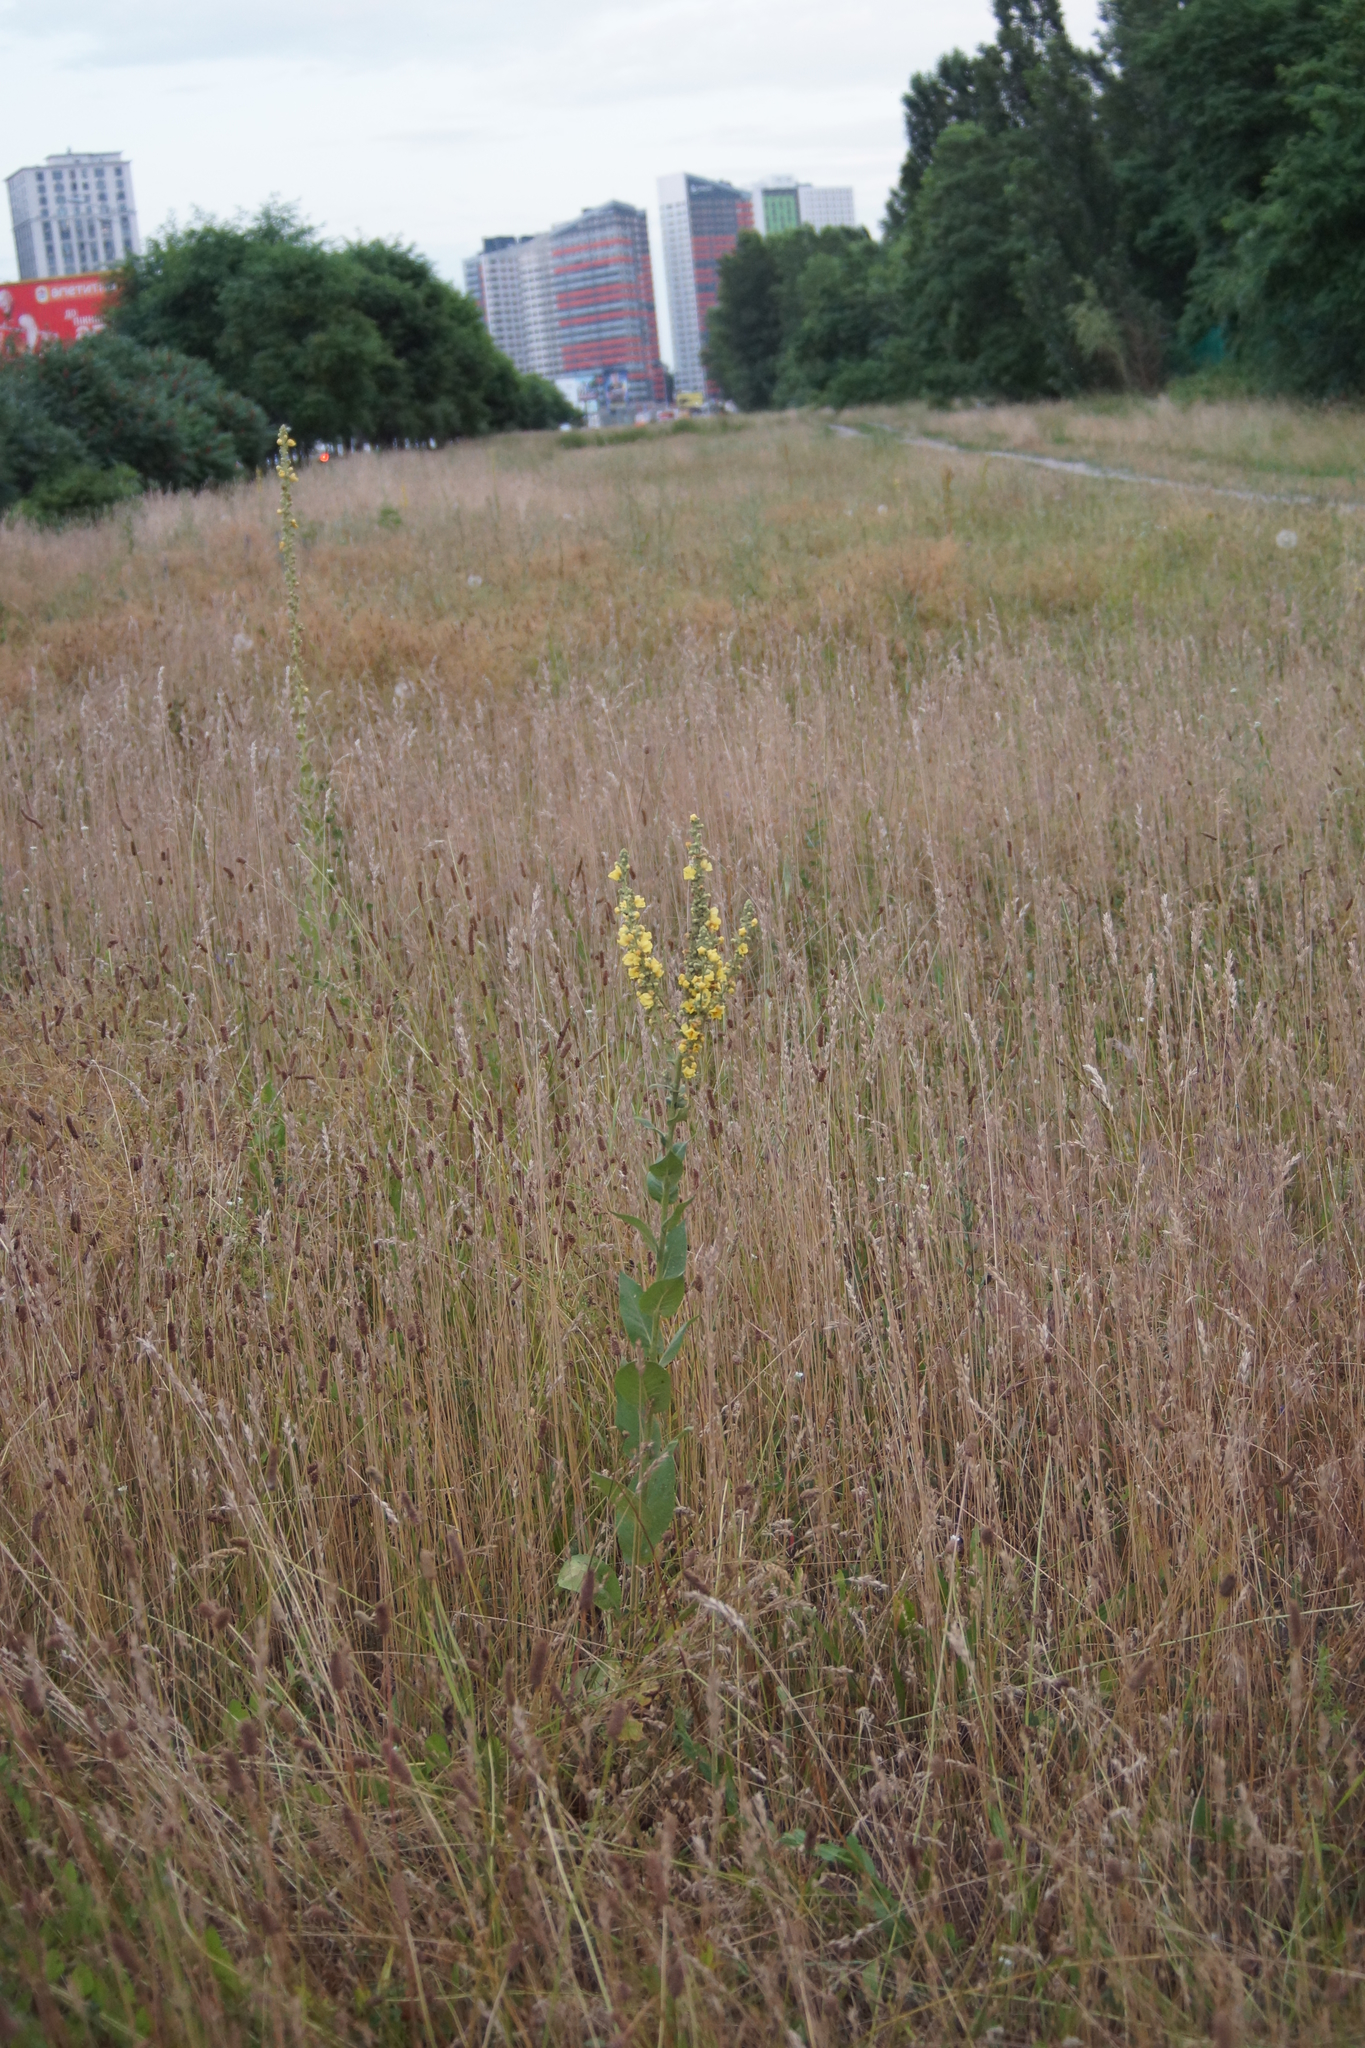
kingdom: Plantae
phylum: Tracheophyta
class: Magnoliopsida
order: Lamiales
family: Scrophulariaceae
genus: Verbascum
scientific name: Verbascum lychnitis
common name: White mullein
